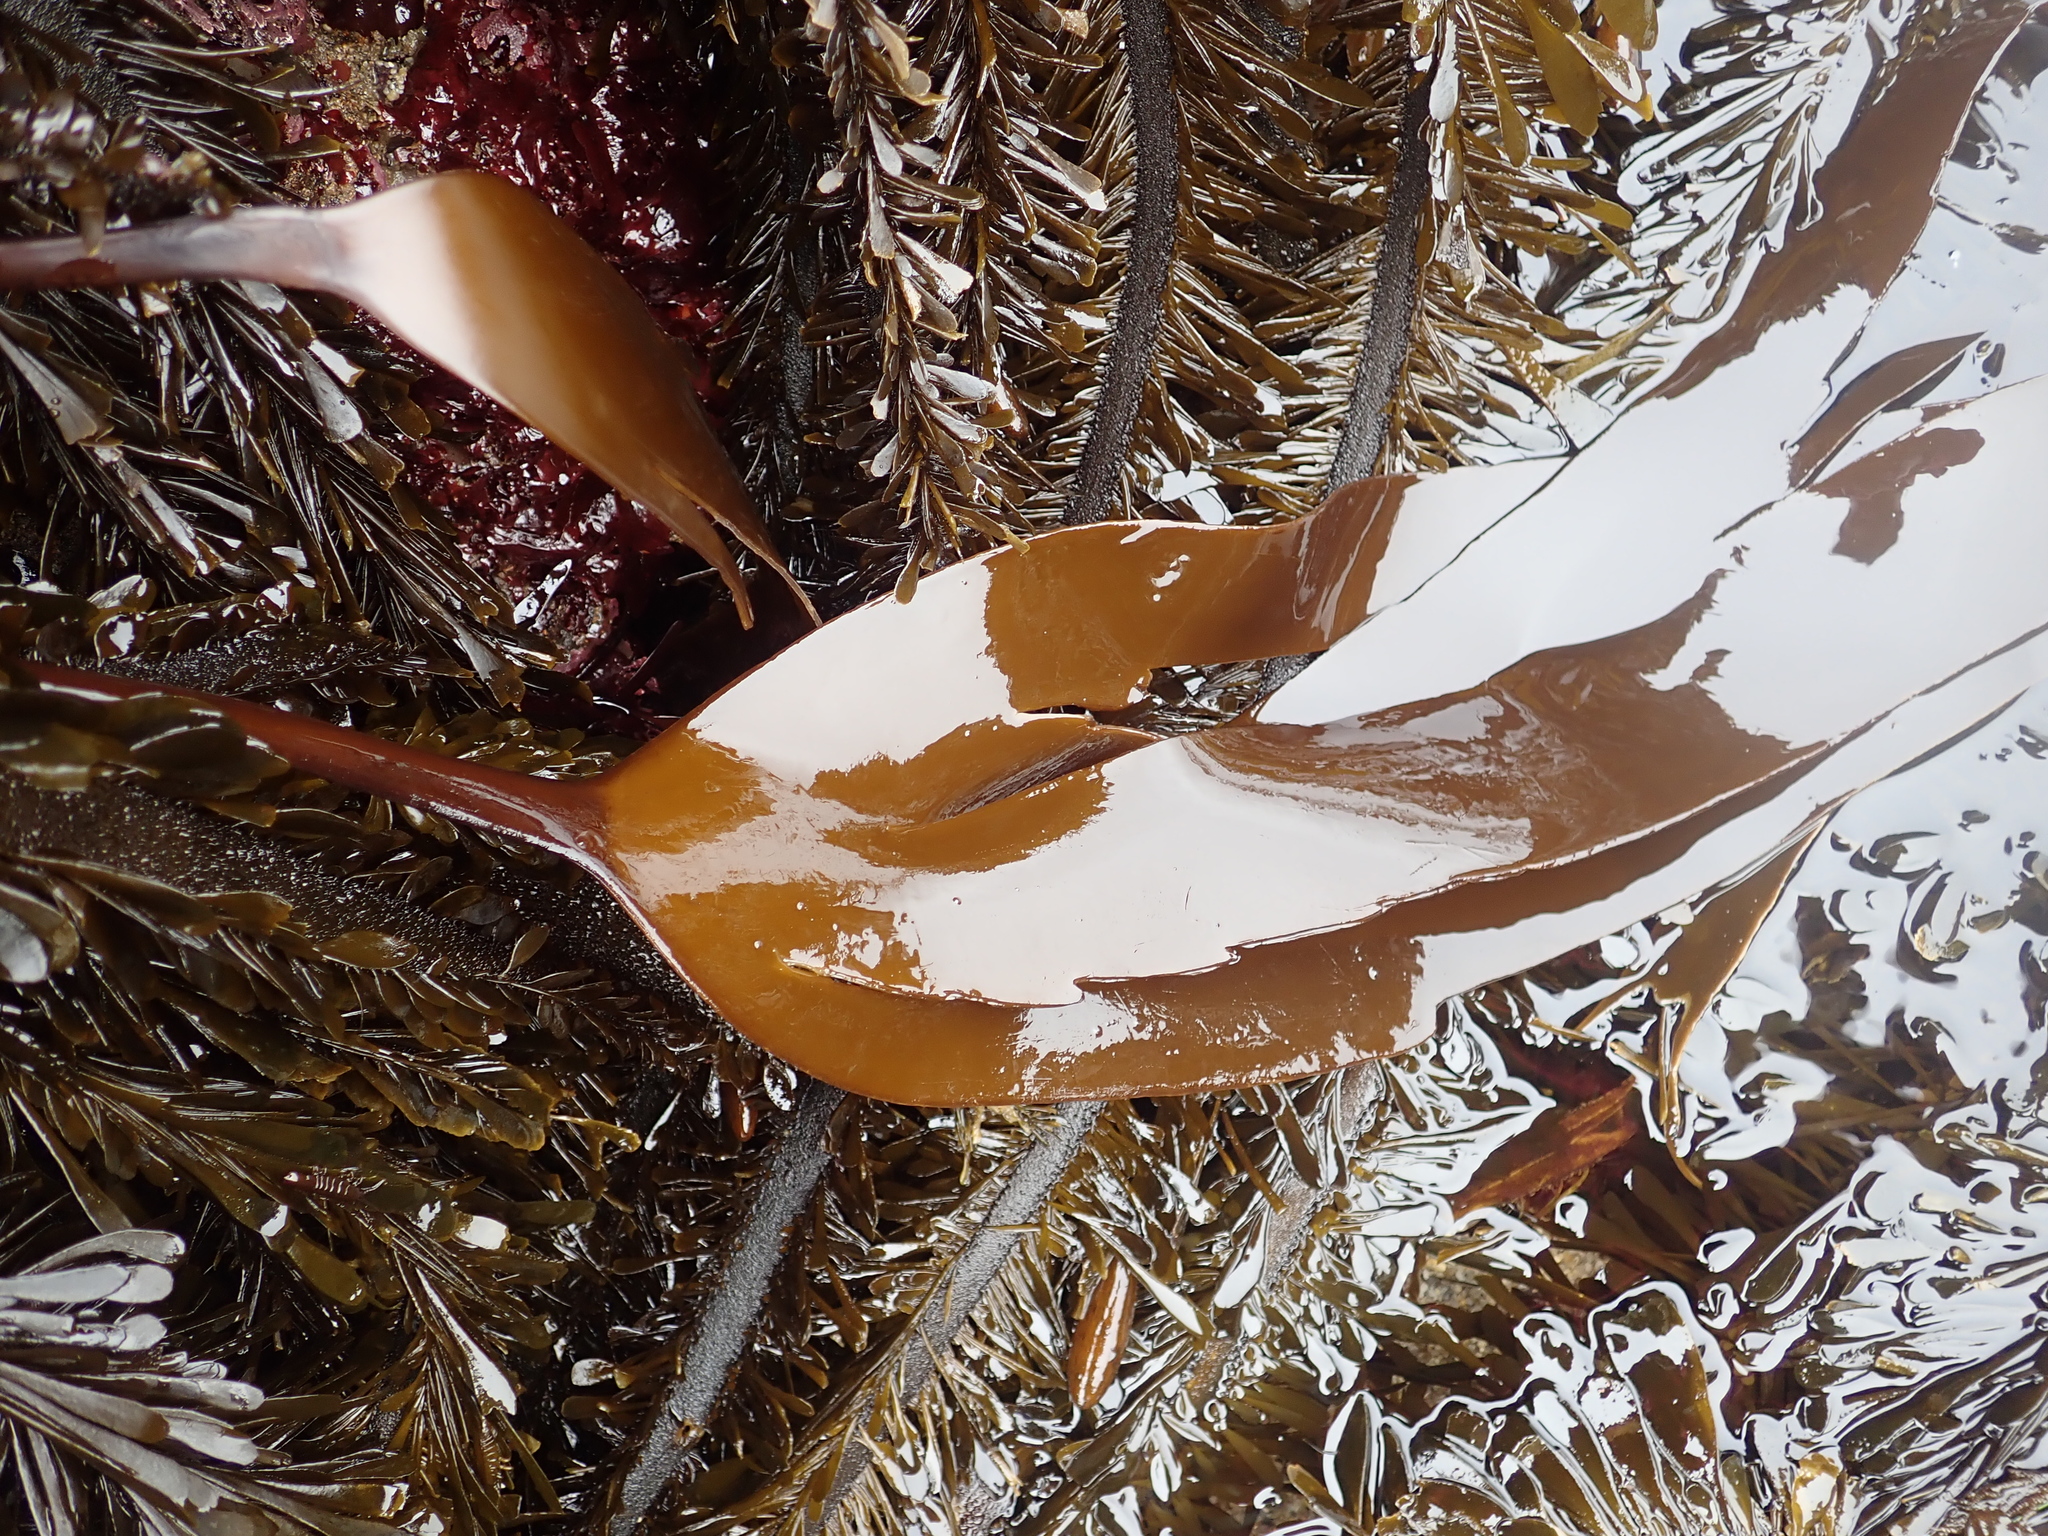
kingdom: Chromista
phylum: Ochrophyta
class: Phaeophyceae
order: Laminariales
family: Laminariaceae
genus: Laminaria
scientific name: Laminaria setchellii
